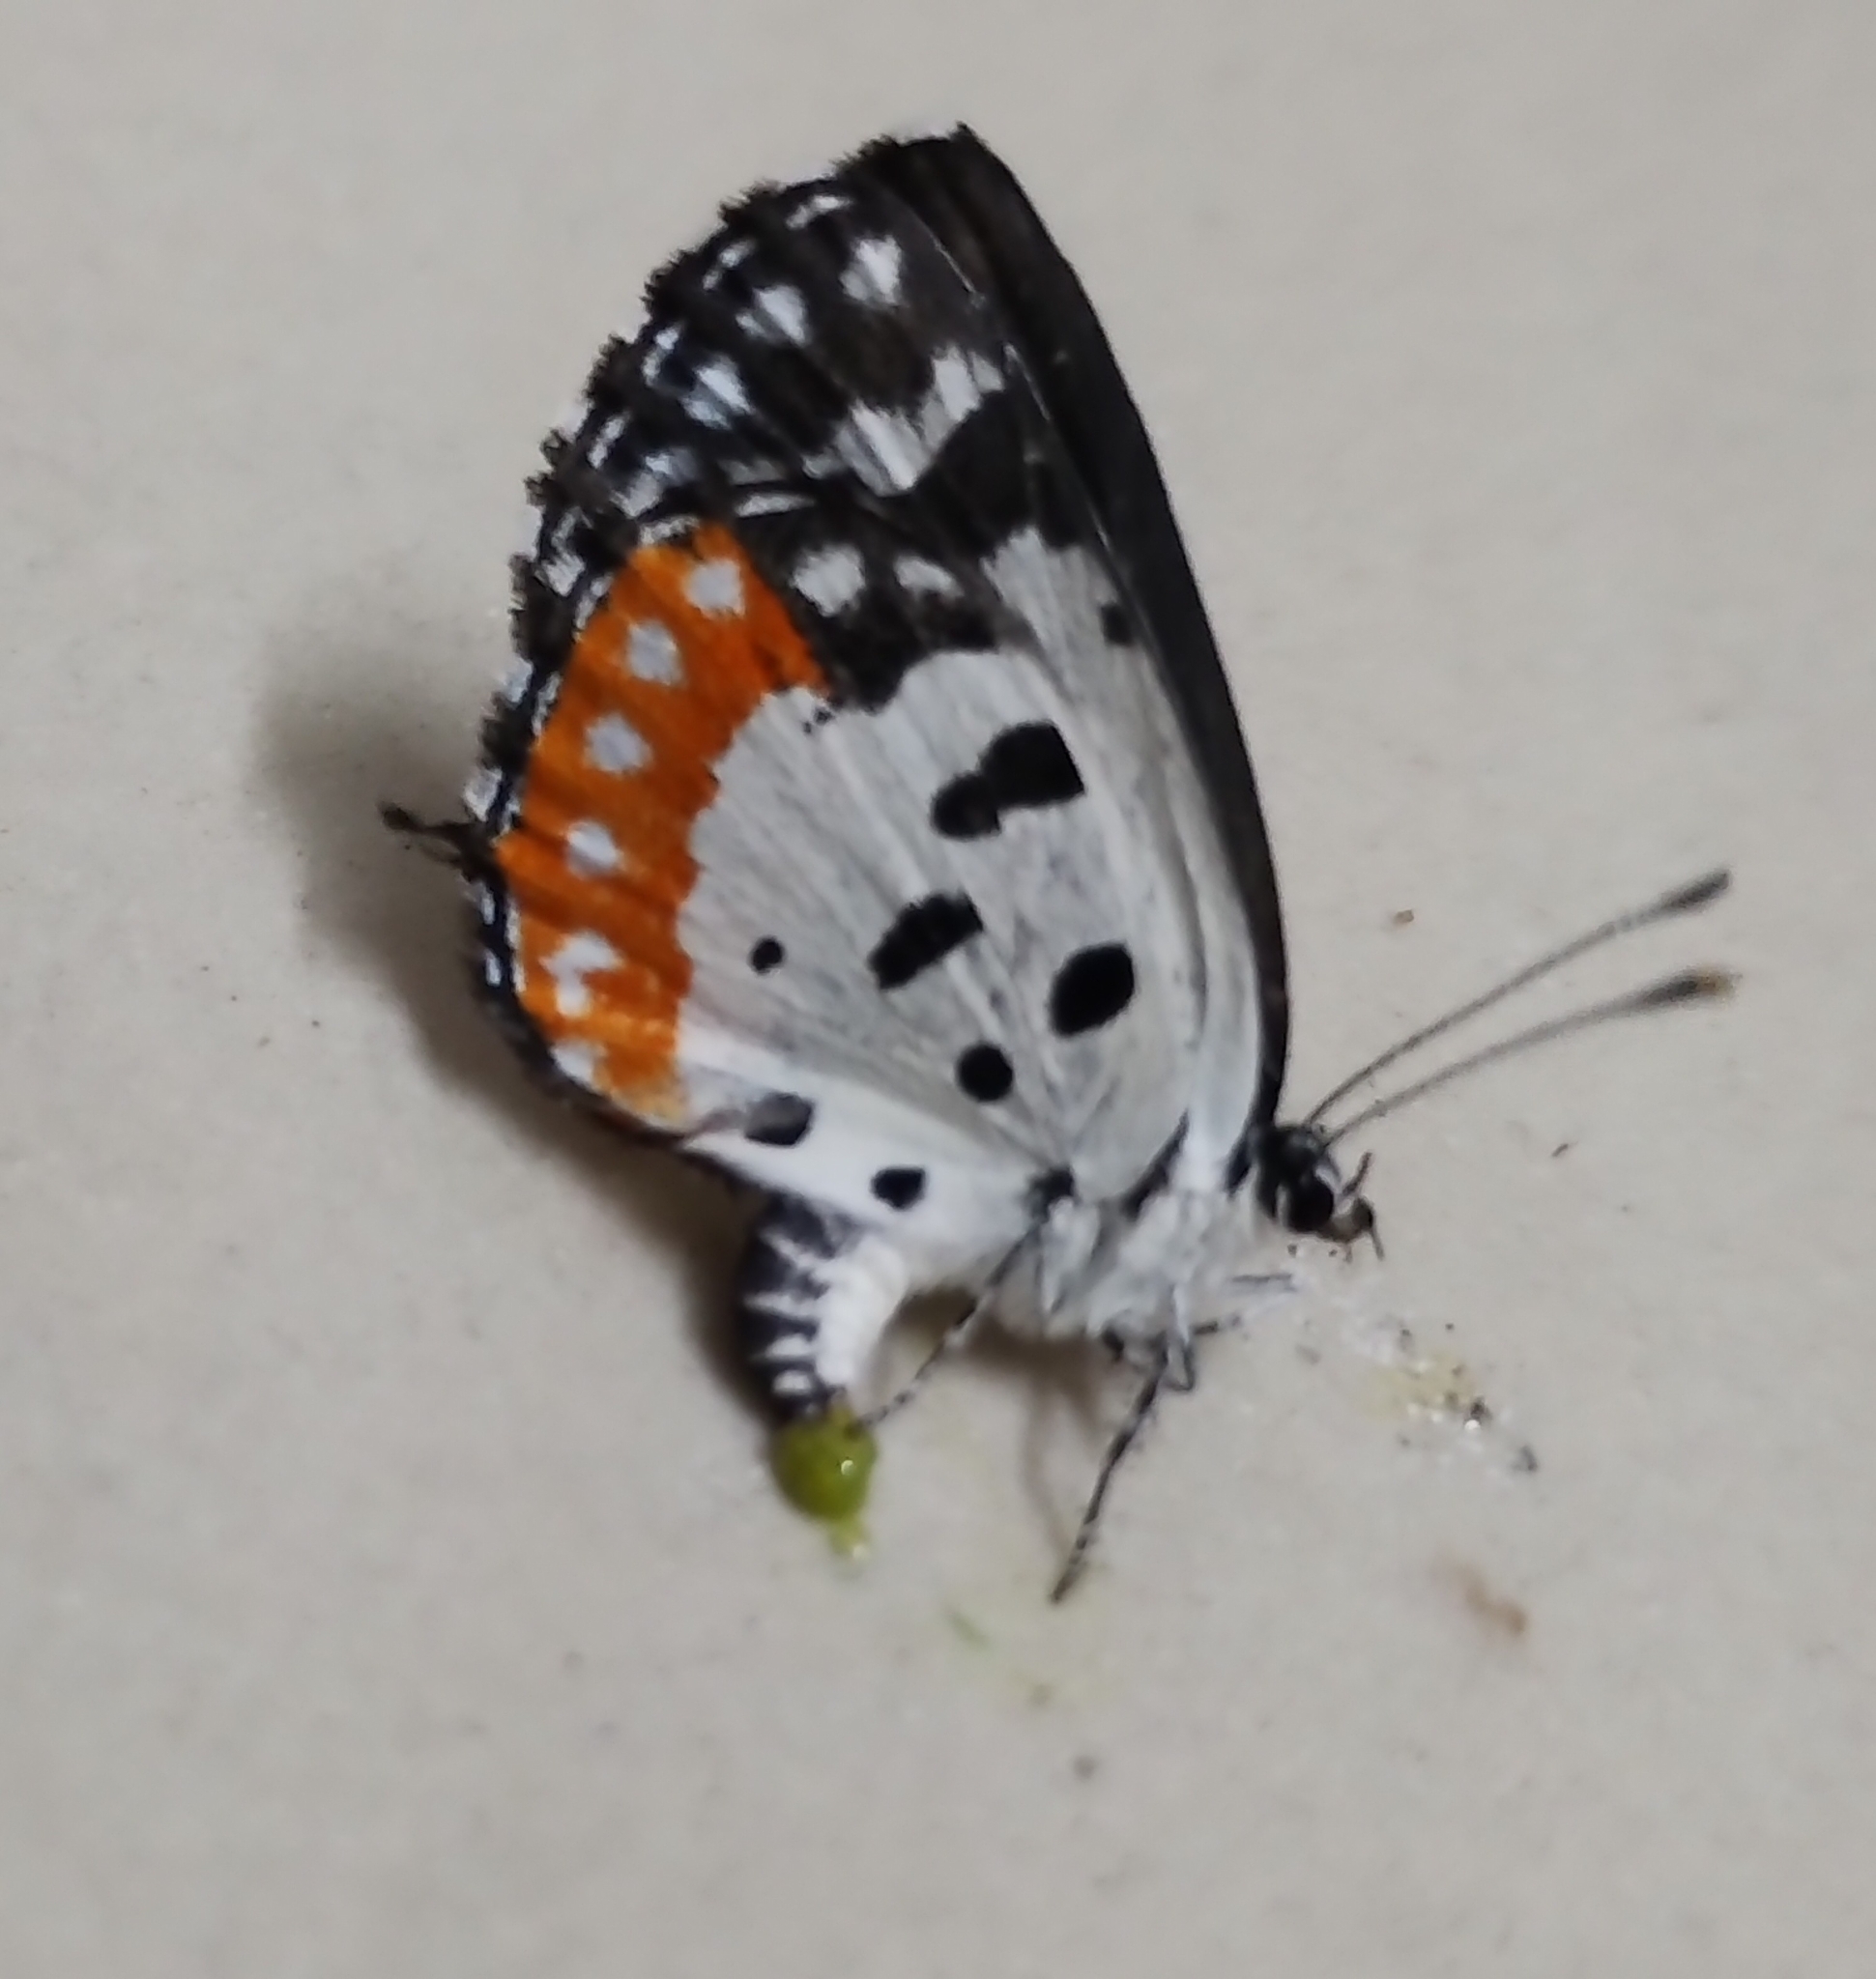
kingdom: Animalia
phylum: Arthropoda
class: Insecta
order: Lepidoptera
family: Lycaenidae
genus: Talicada
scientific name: Talicada nyseus
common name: Red pierrot
